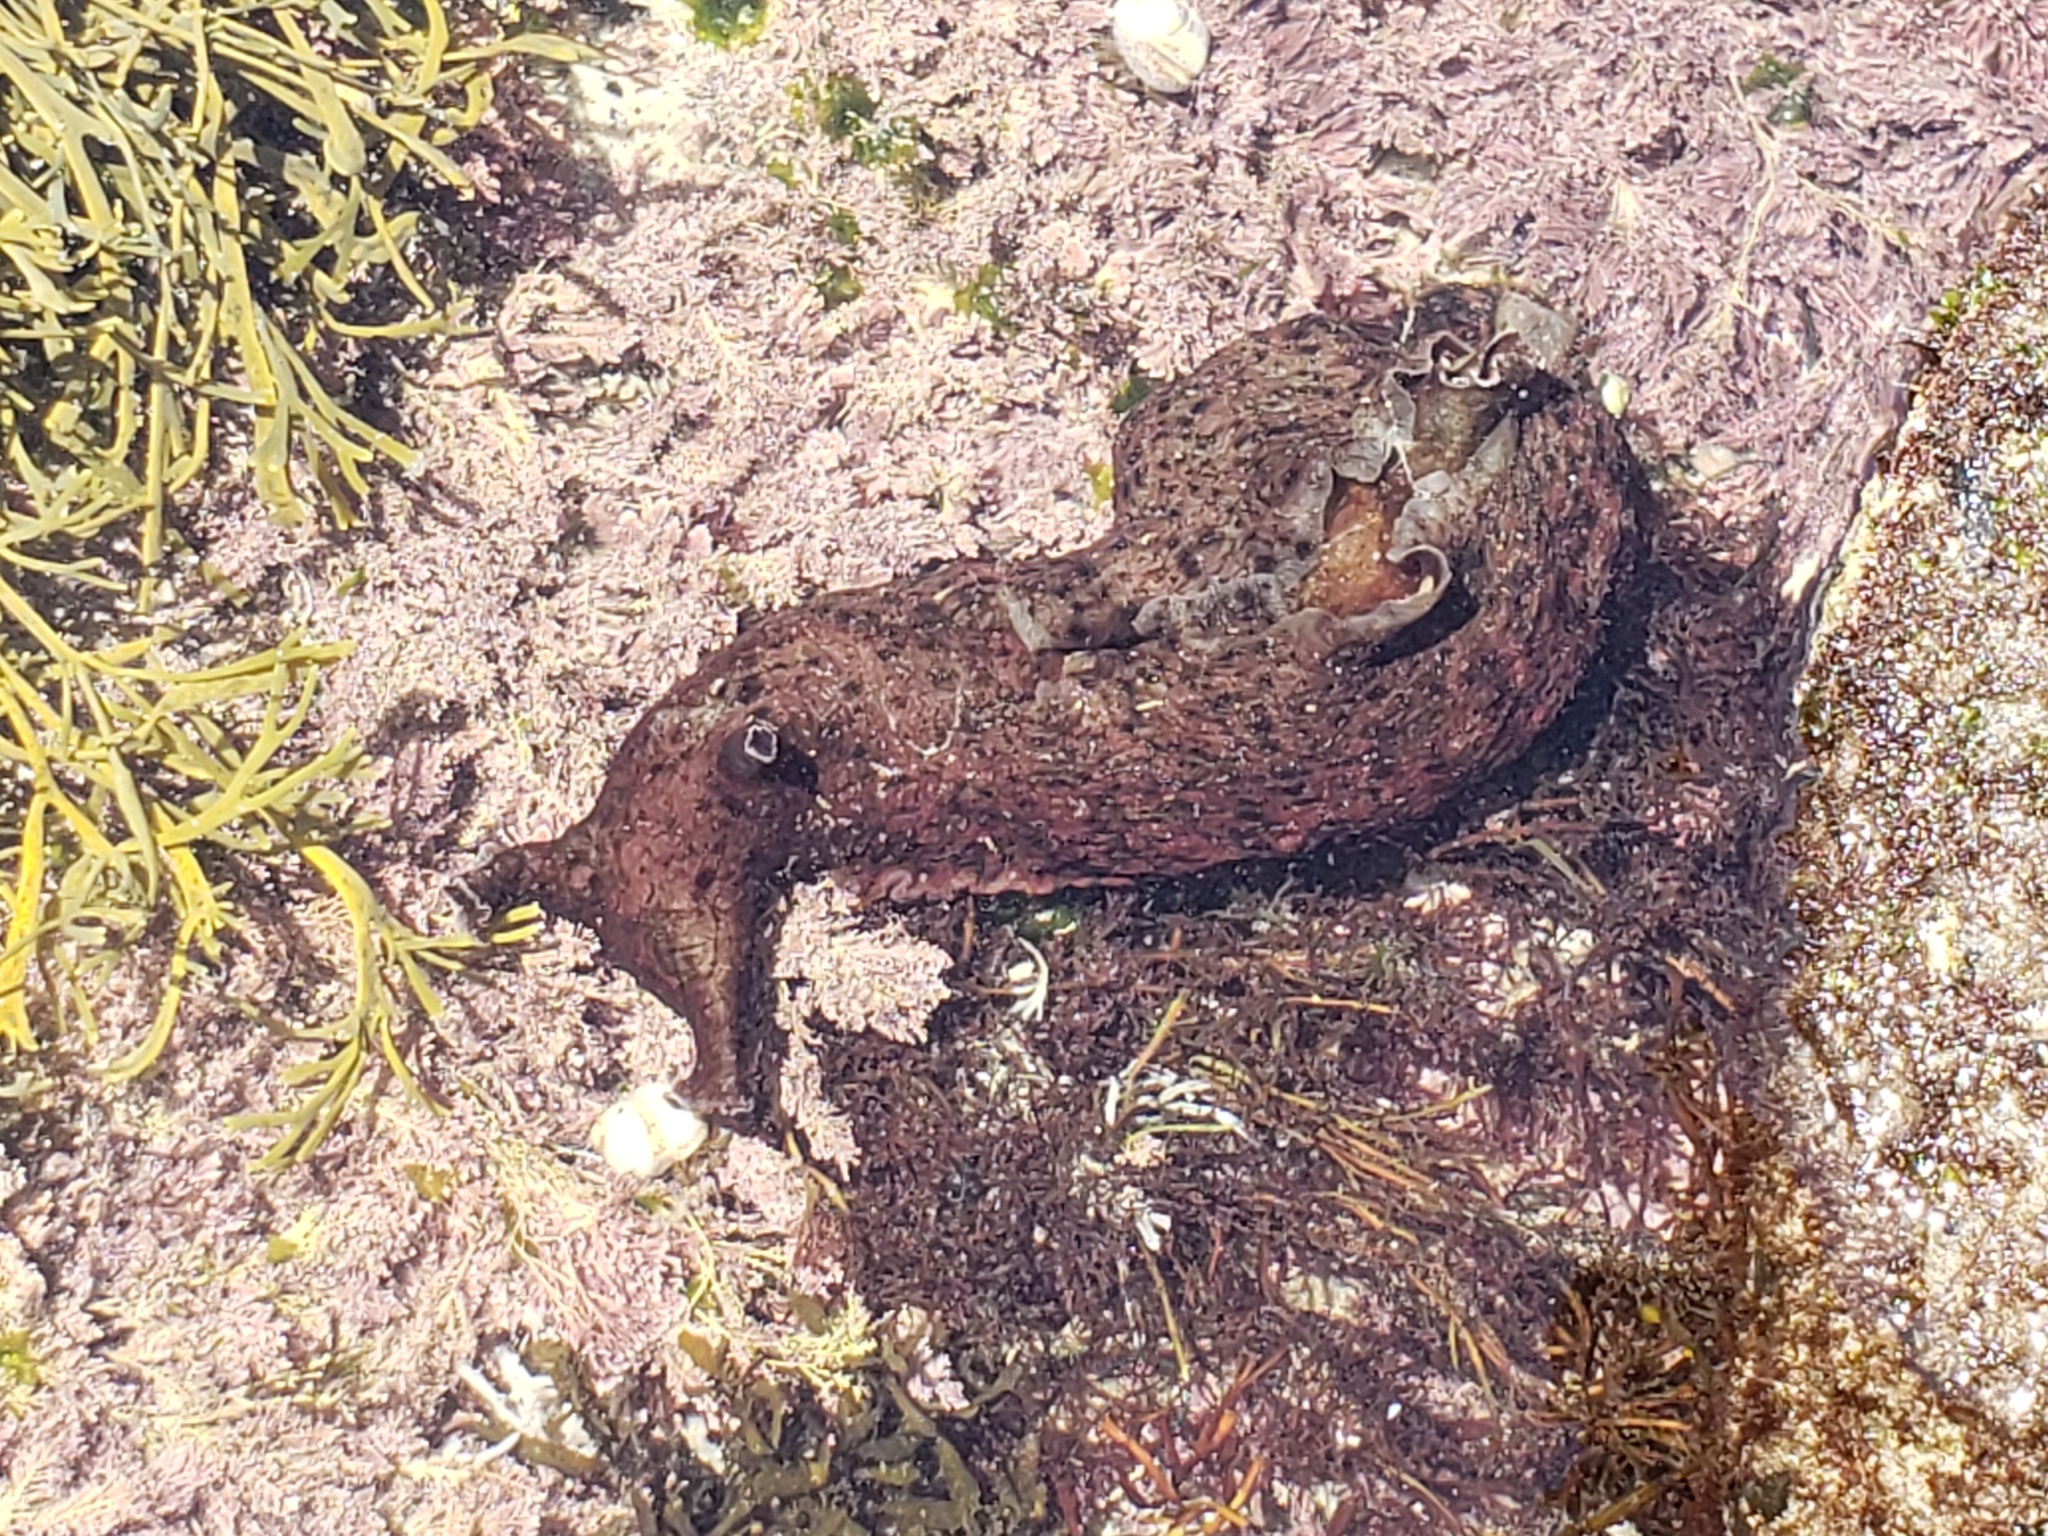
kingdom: Animalia
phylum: Mollusca
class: Gastropoda
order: Aplysiida
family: Aplysiidae
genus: Aplysia
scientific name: Aplysia californica
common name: California seahare
